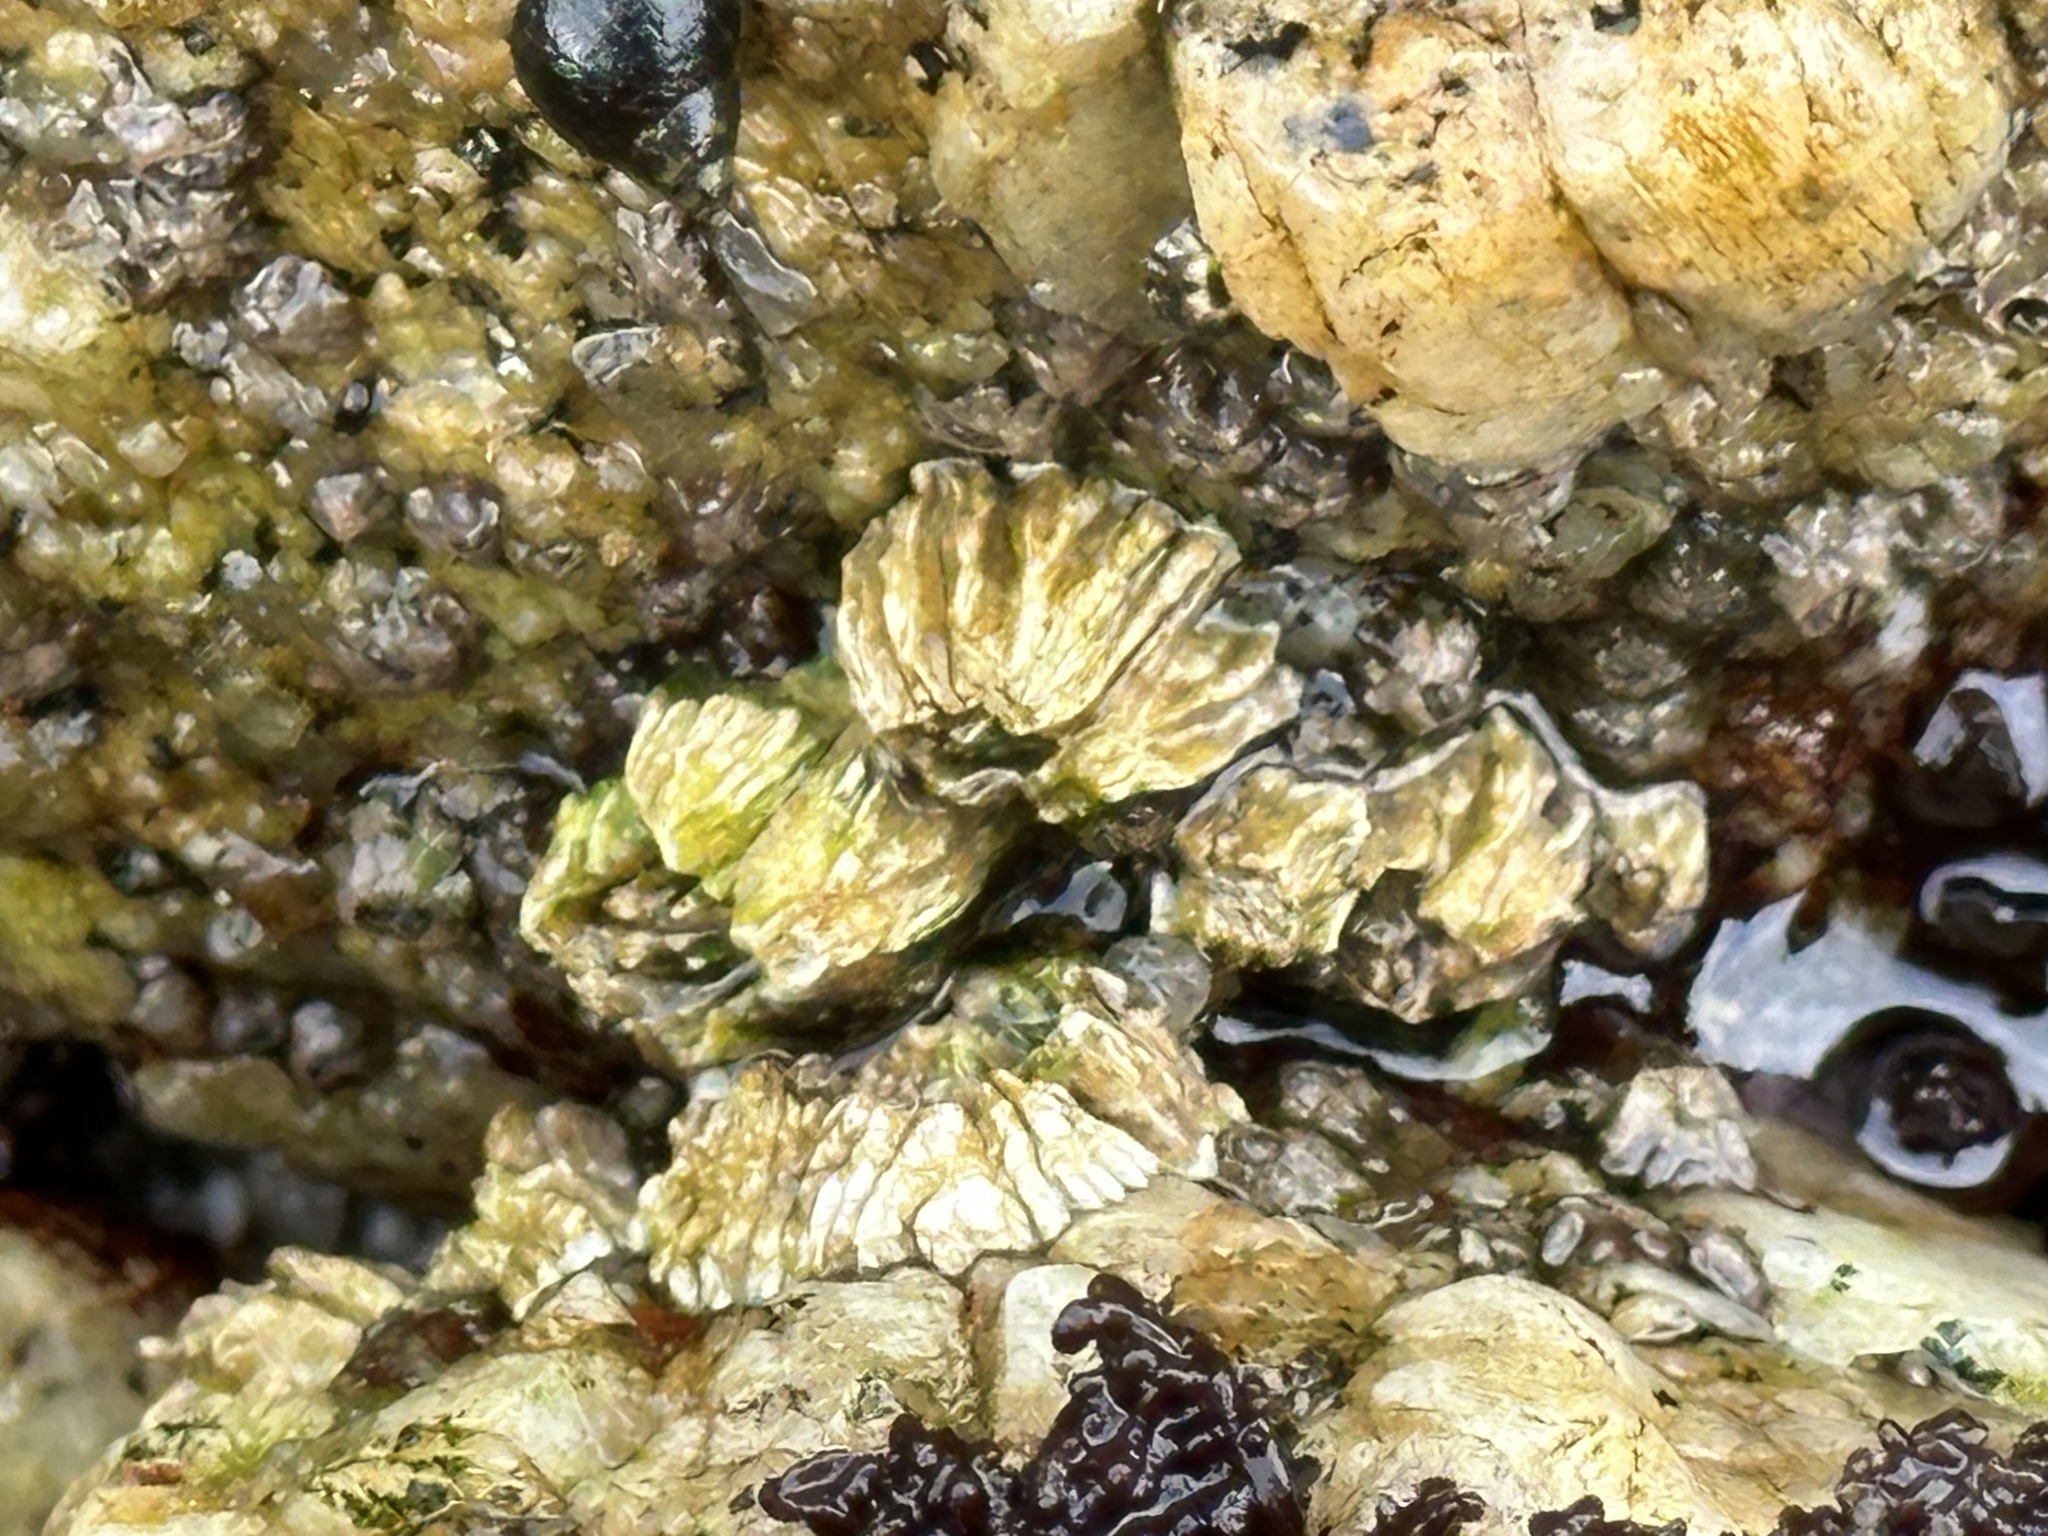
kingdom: Animalia
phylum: Arthropoda
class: Maxillopoda
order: Sessilia
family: Balanidae
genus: Balanus
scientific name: Balanus glandula
